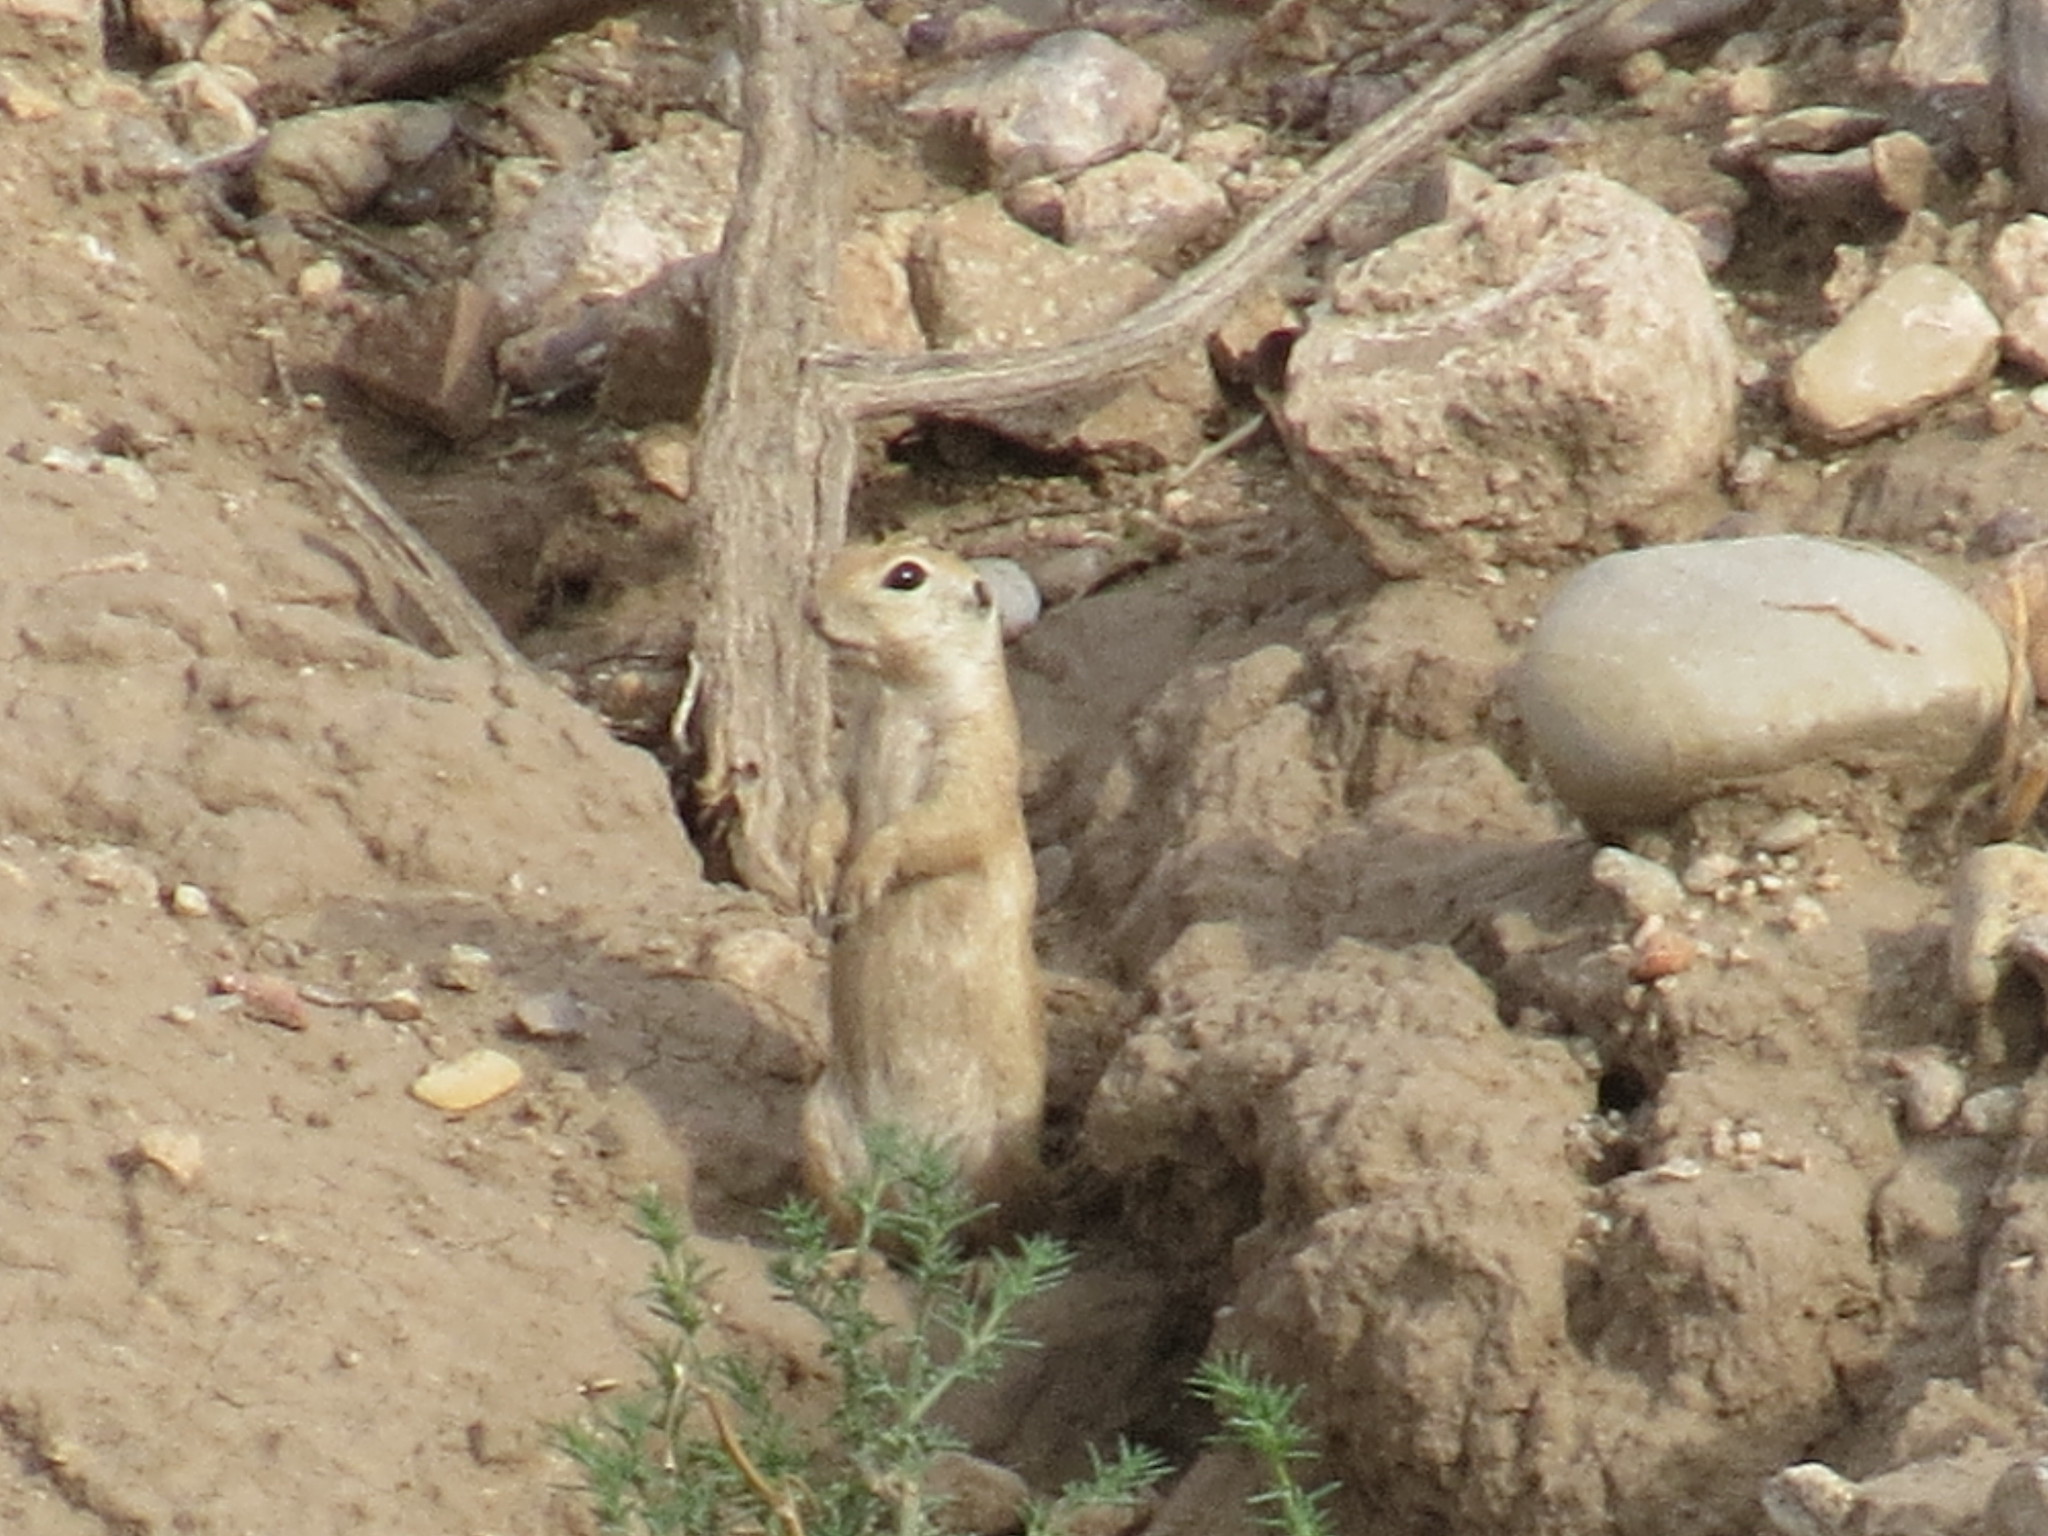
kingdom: Animalia
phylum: Chordata
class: Mammalia
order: Rodentia
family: Sciuridae
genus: Xerospermophilus
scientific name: Xerospermophilus tereticaudus
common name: Round-tailed ground squirrel
